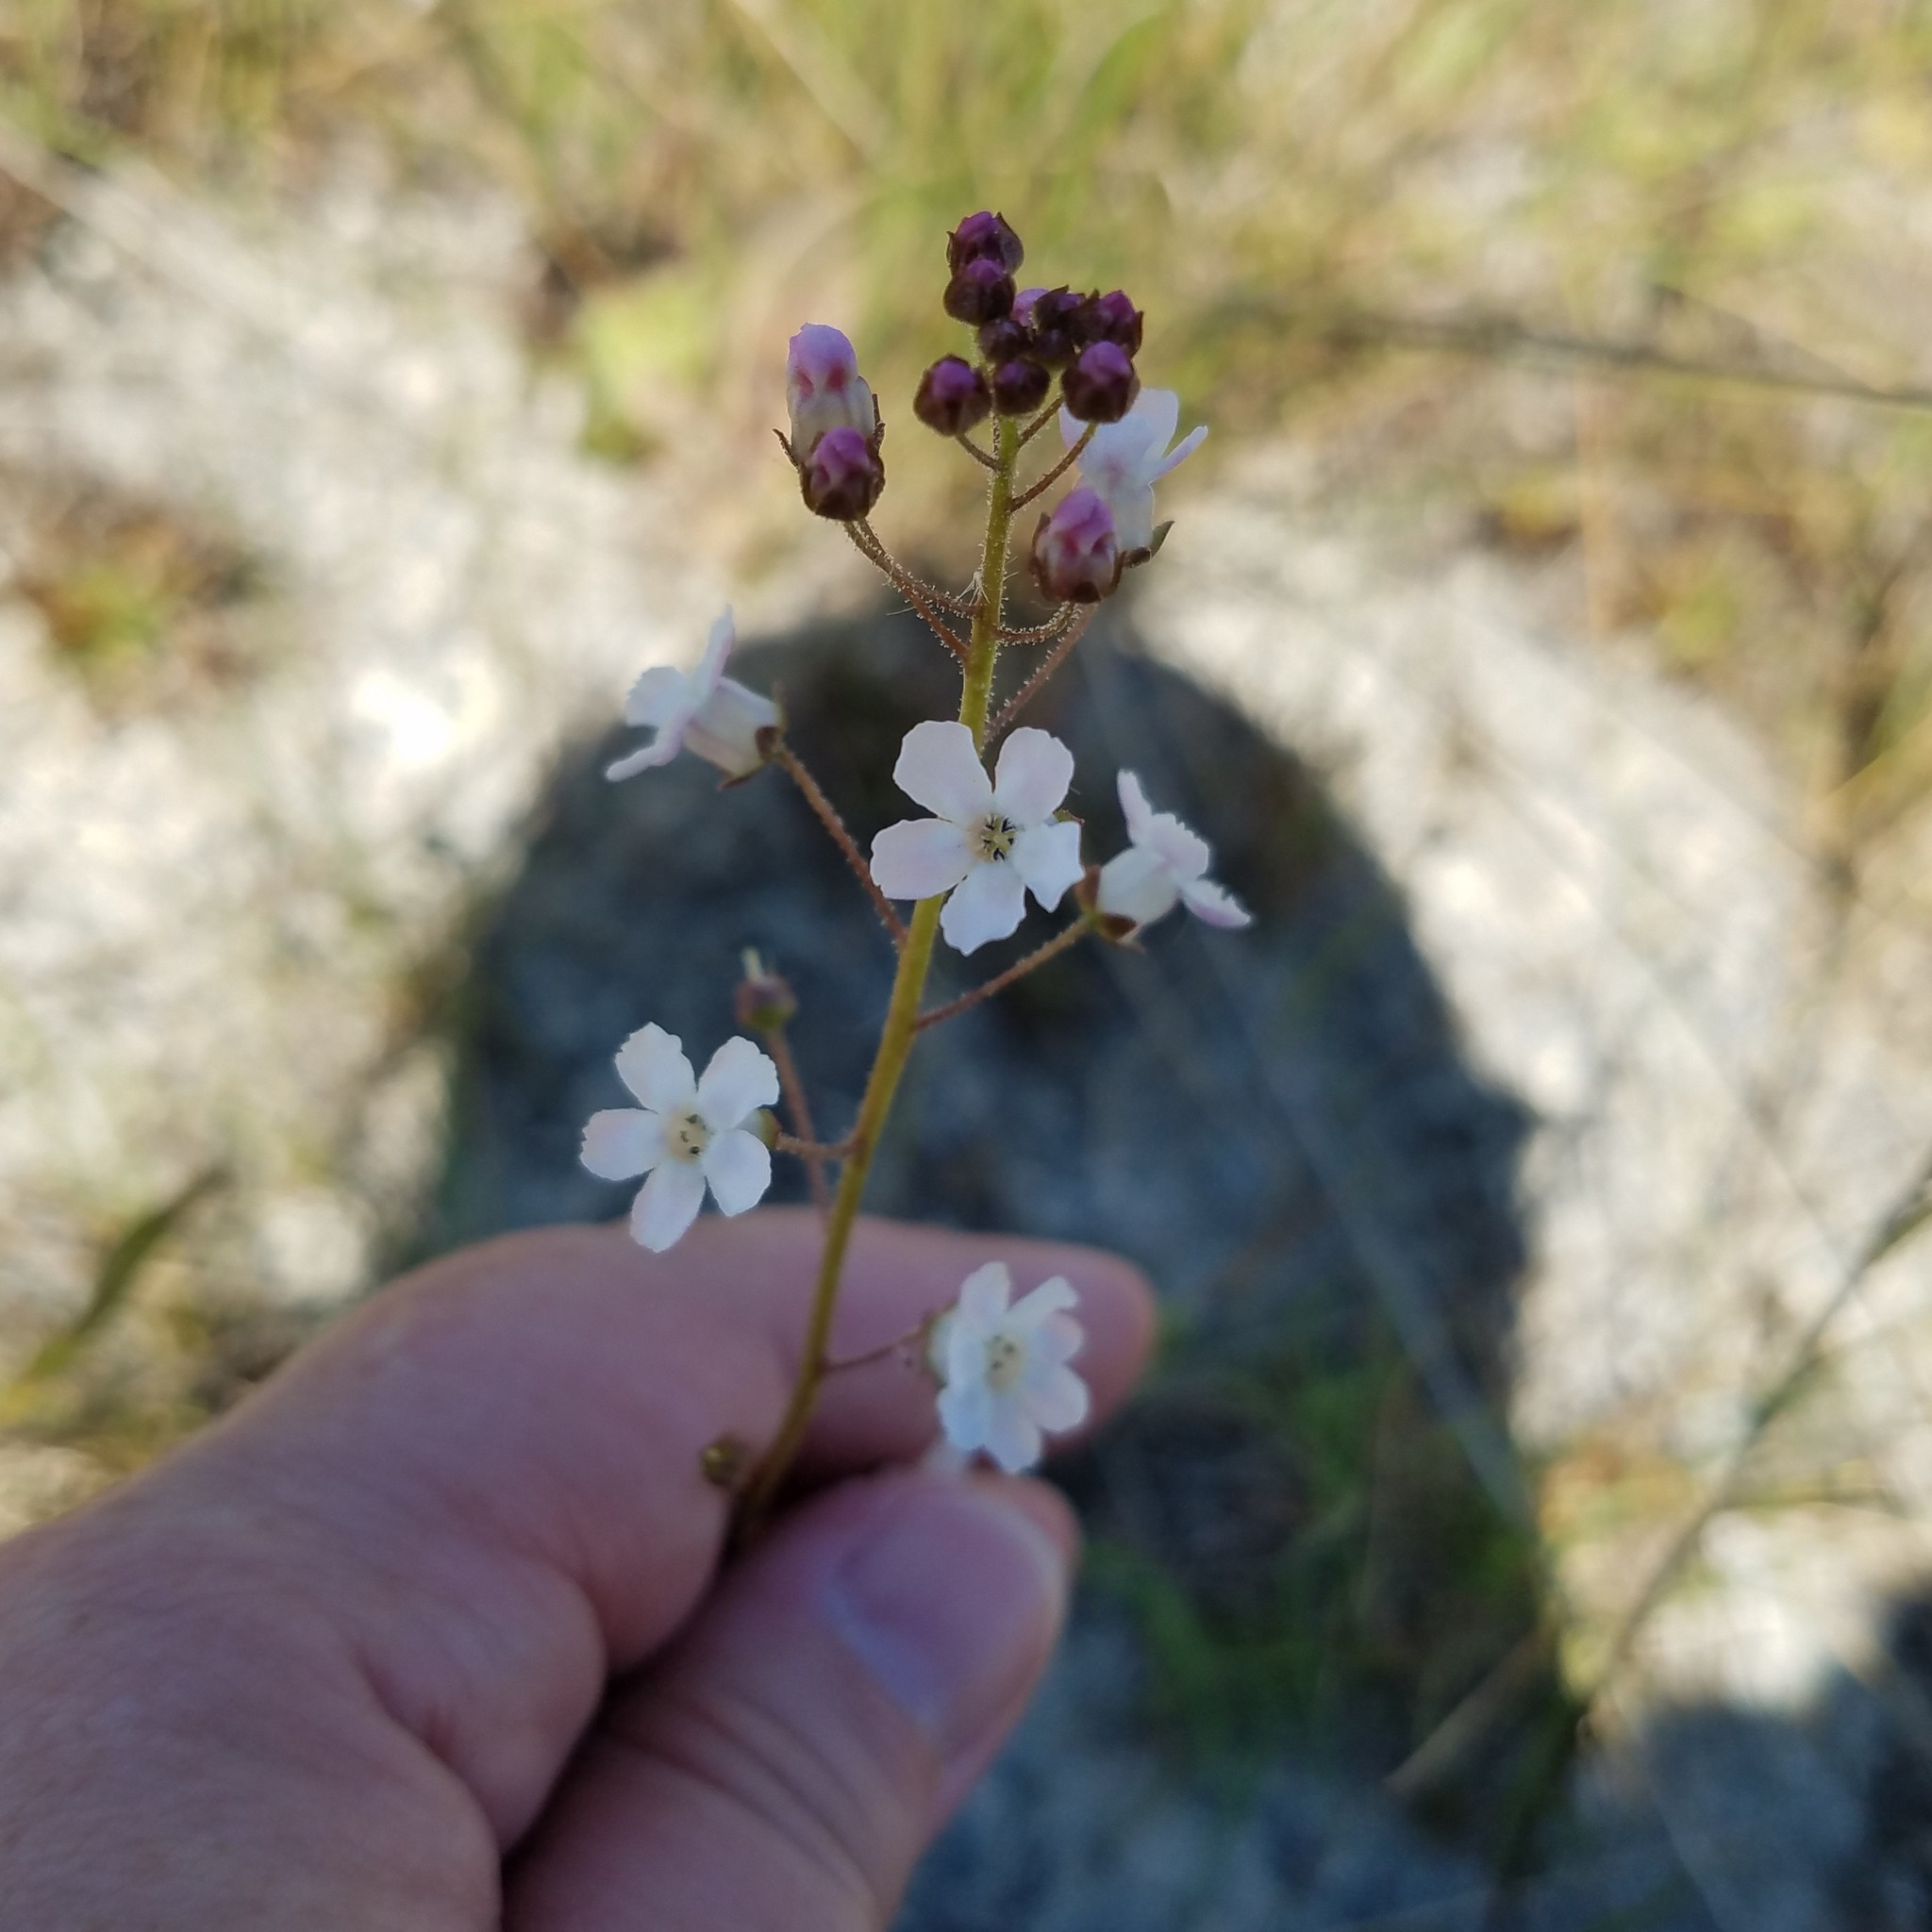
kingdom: Plantae
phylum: Tracheophyta
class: Magnoliopsida
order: Ericales
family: Primulaceae
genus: Samolus
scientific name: Samolus ebracteatus
